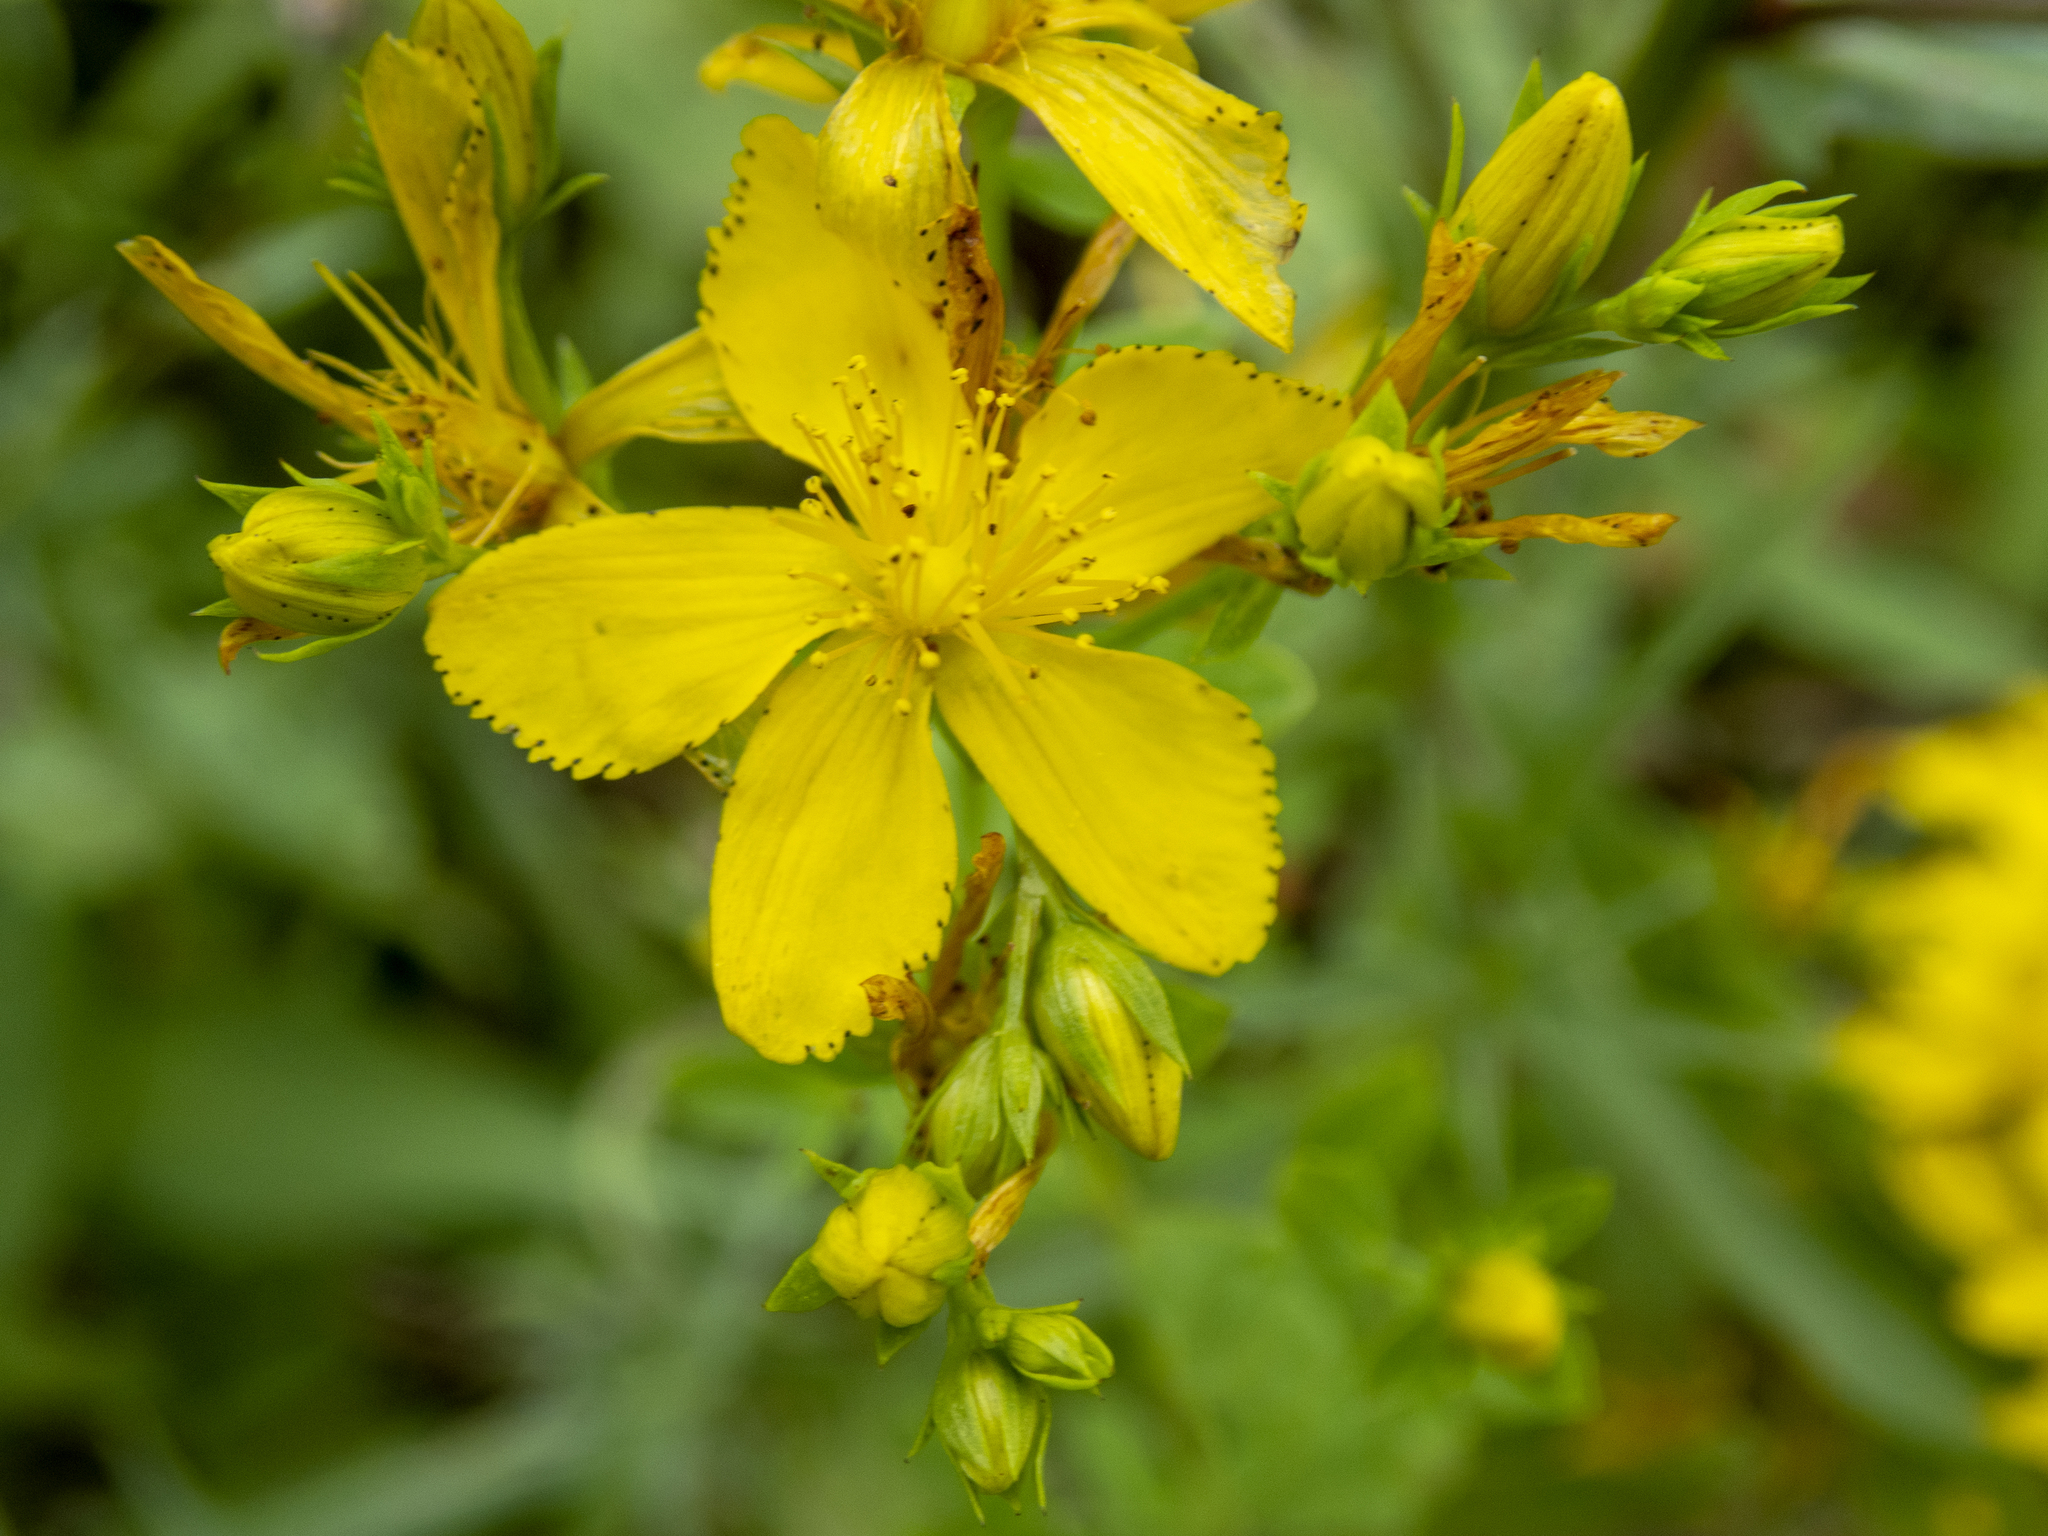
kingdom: Plantae
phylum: Tracheophyta
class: Magnoliopsida
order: Malpighiales
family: Hypericaceae
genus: Hypericum
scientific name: Hypericum perforatum
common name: Common st. johnswort
